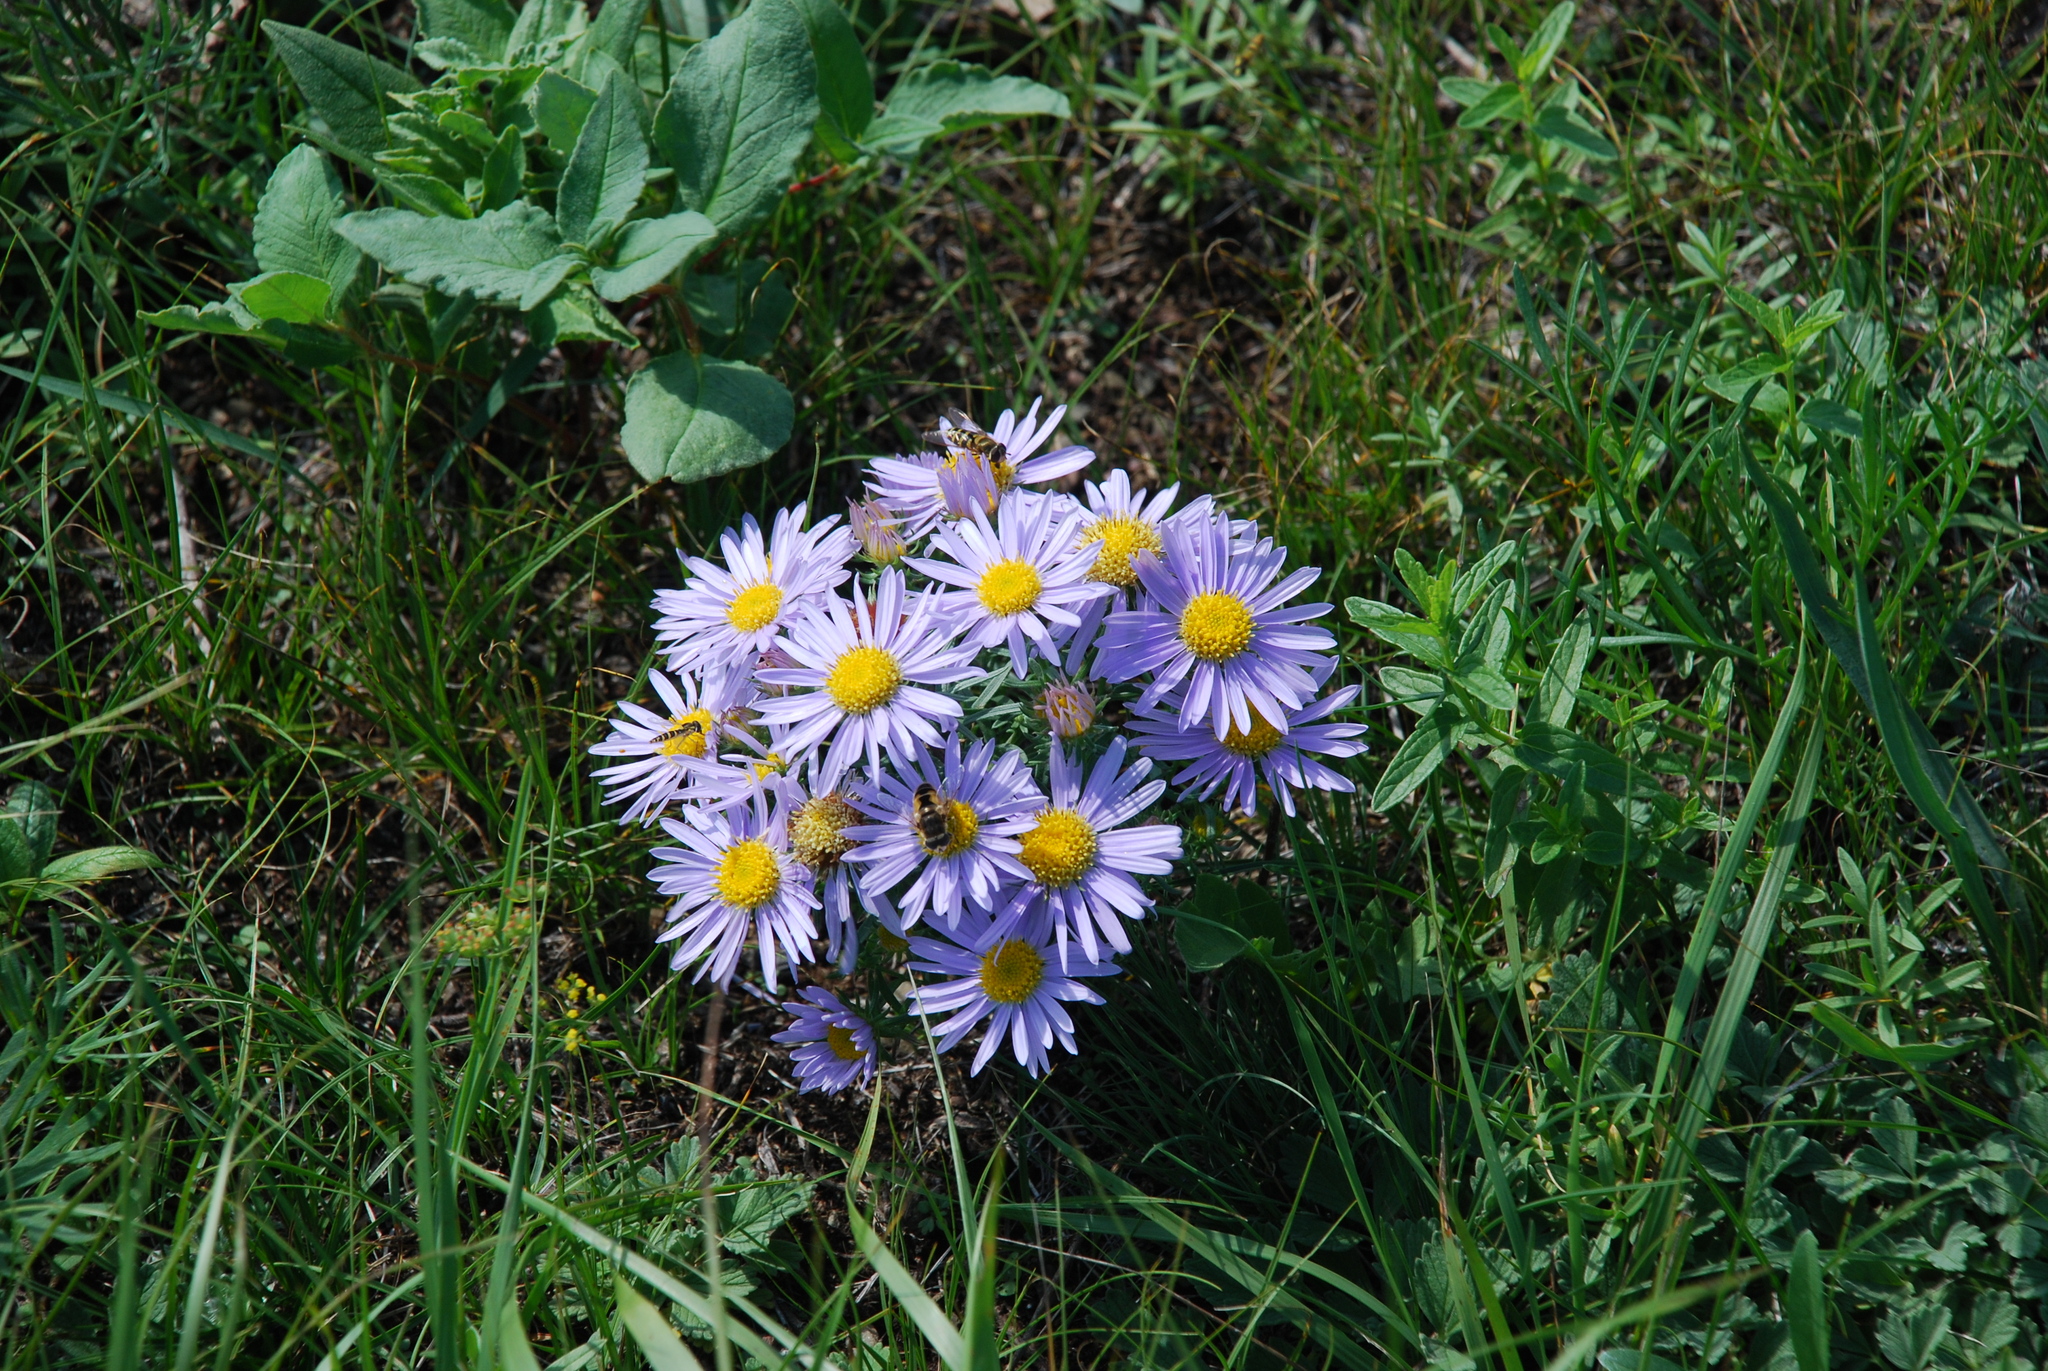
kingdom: Plantae
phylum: Tracheophyta
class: Magnoliopsida
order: Asterales
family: Asteraceae
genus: Aster
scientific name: Aster biennis
